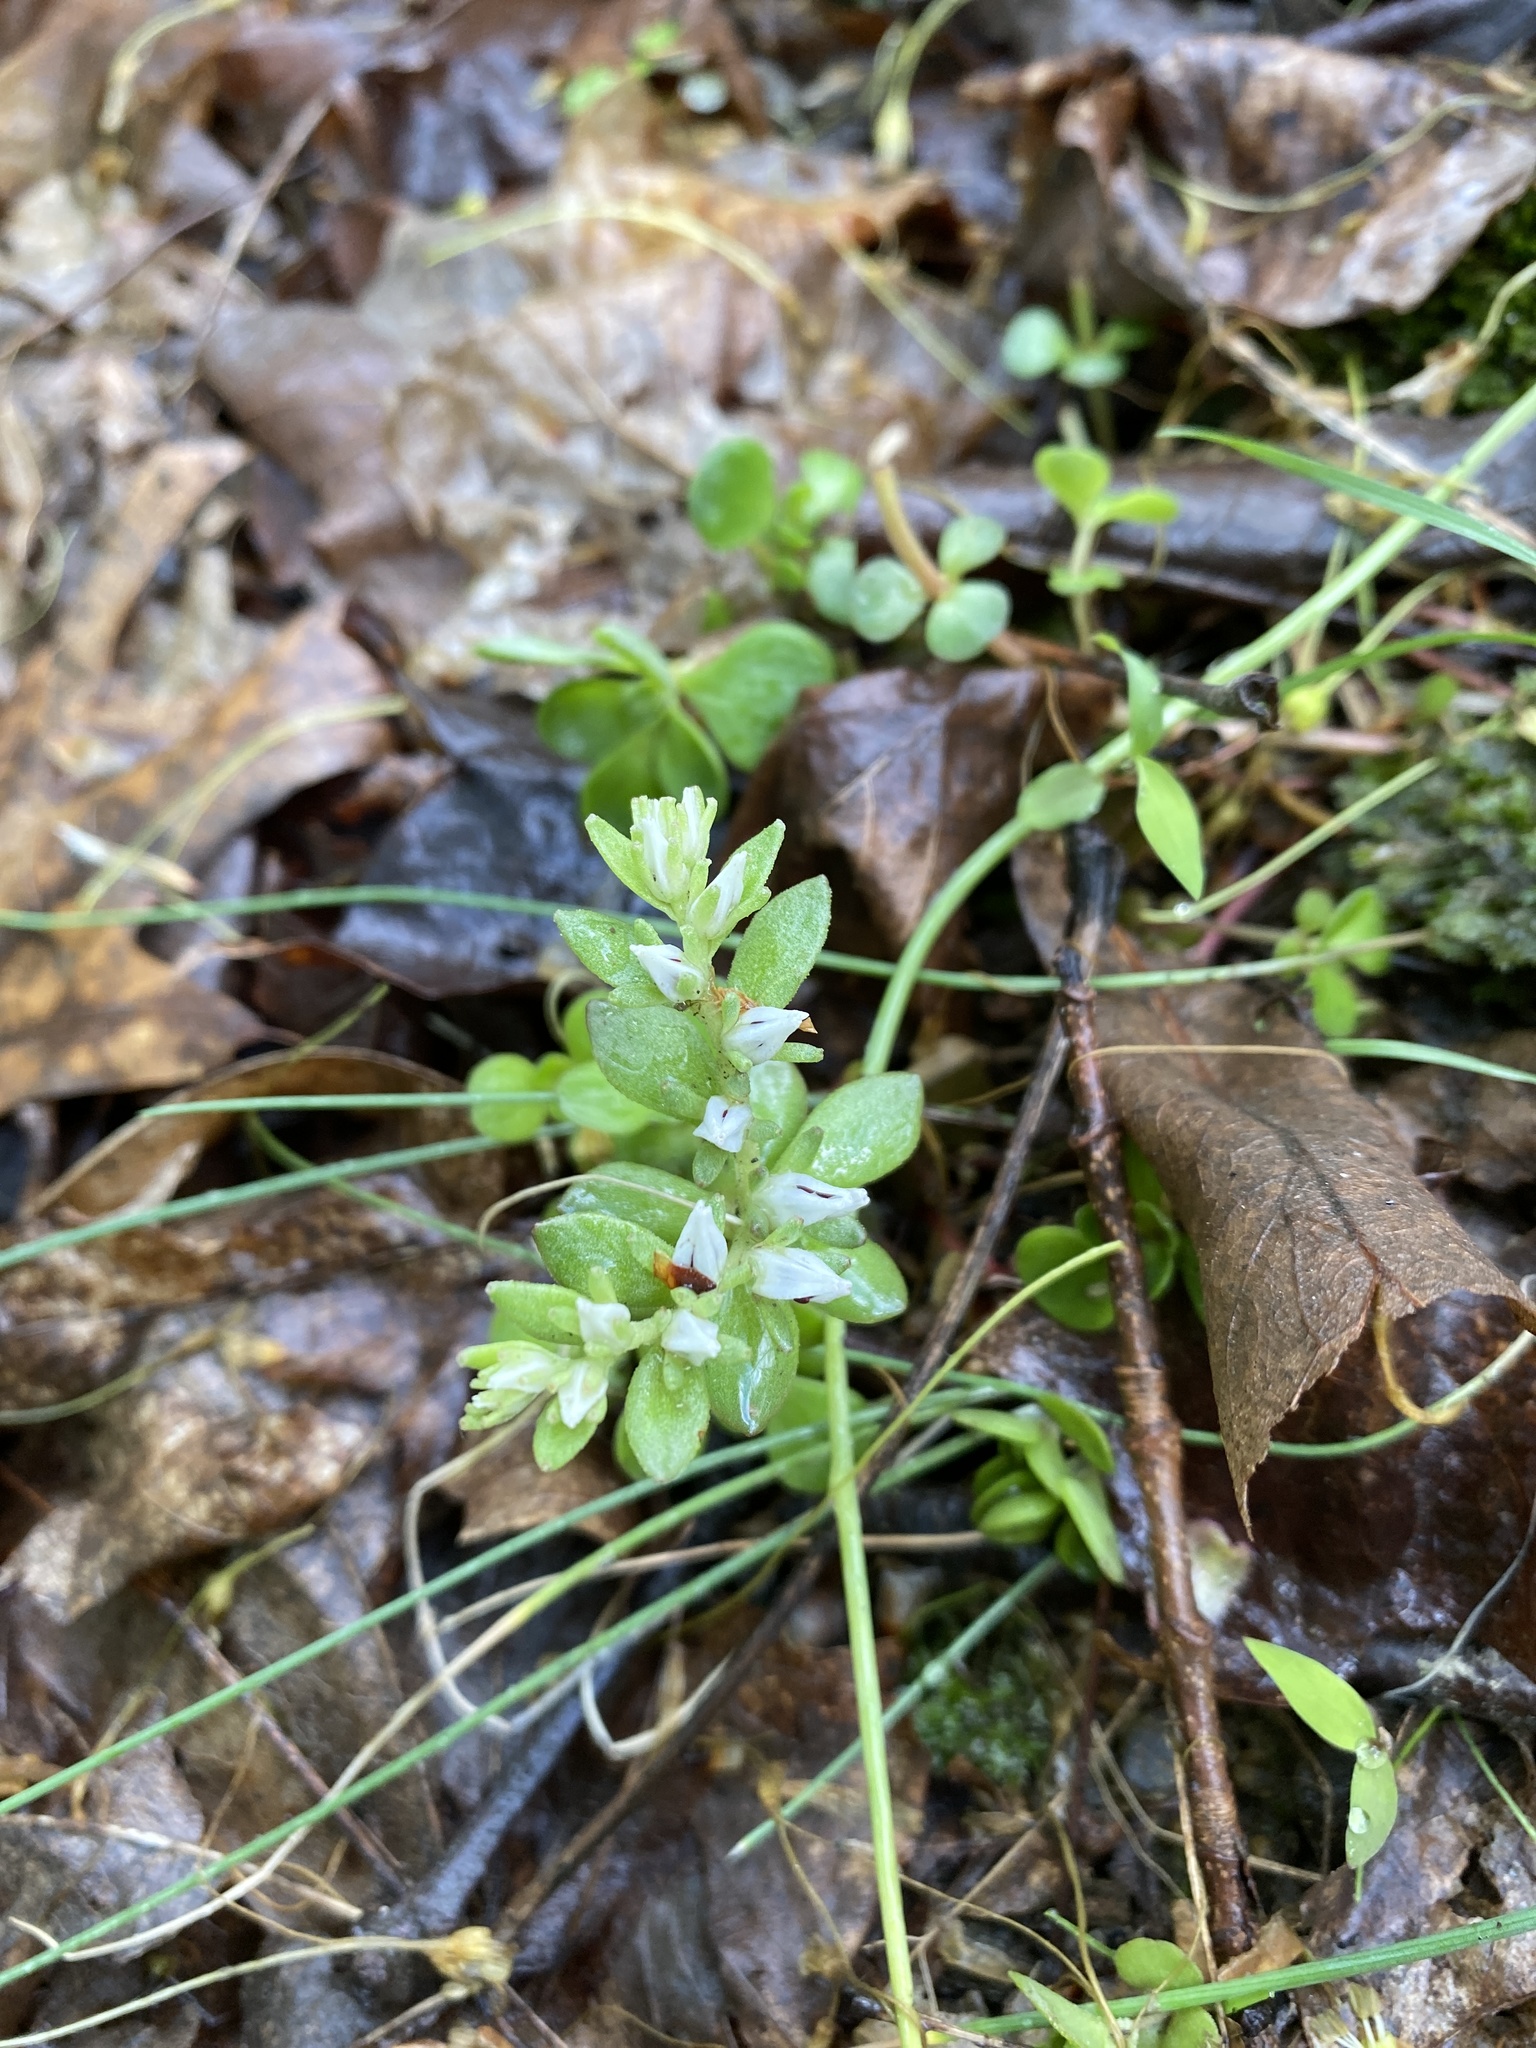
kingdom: Plantae
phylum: Tracheophyta
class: Magnoliopsida
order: Saxifragales
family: Crassulaceae
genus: Sedum
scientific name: Sedum ternatum
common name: Wild stonecrop
